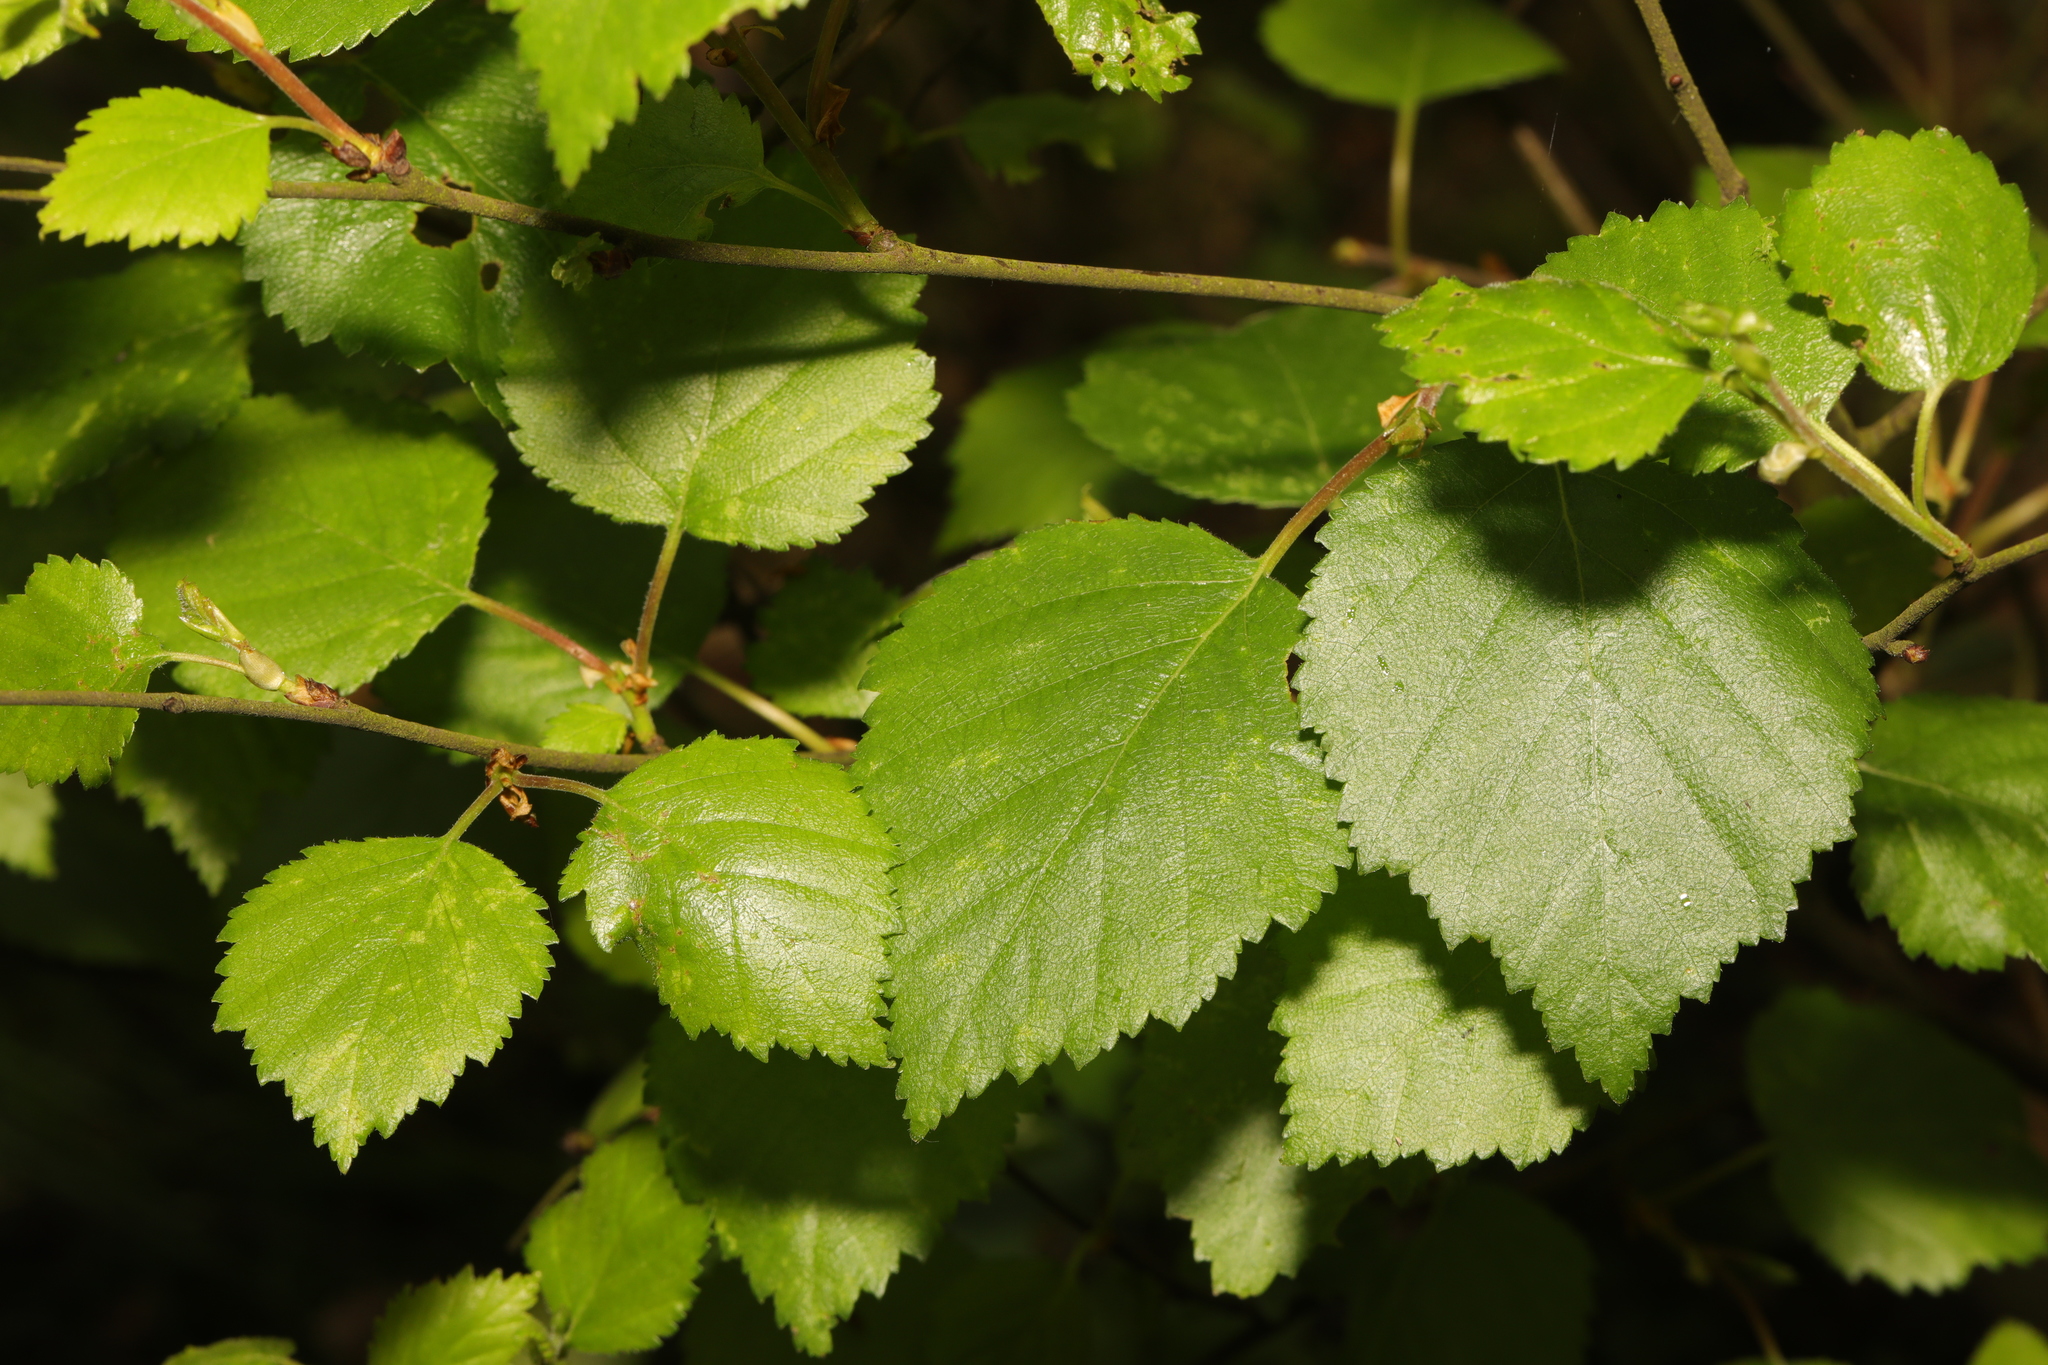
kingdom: Plantae
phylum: Tracheophyta
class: Magnoliopsida
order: Fagales
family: Betulaceae
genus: Betula
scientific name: Betula pubescens
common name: Downy birch
